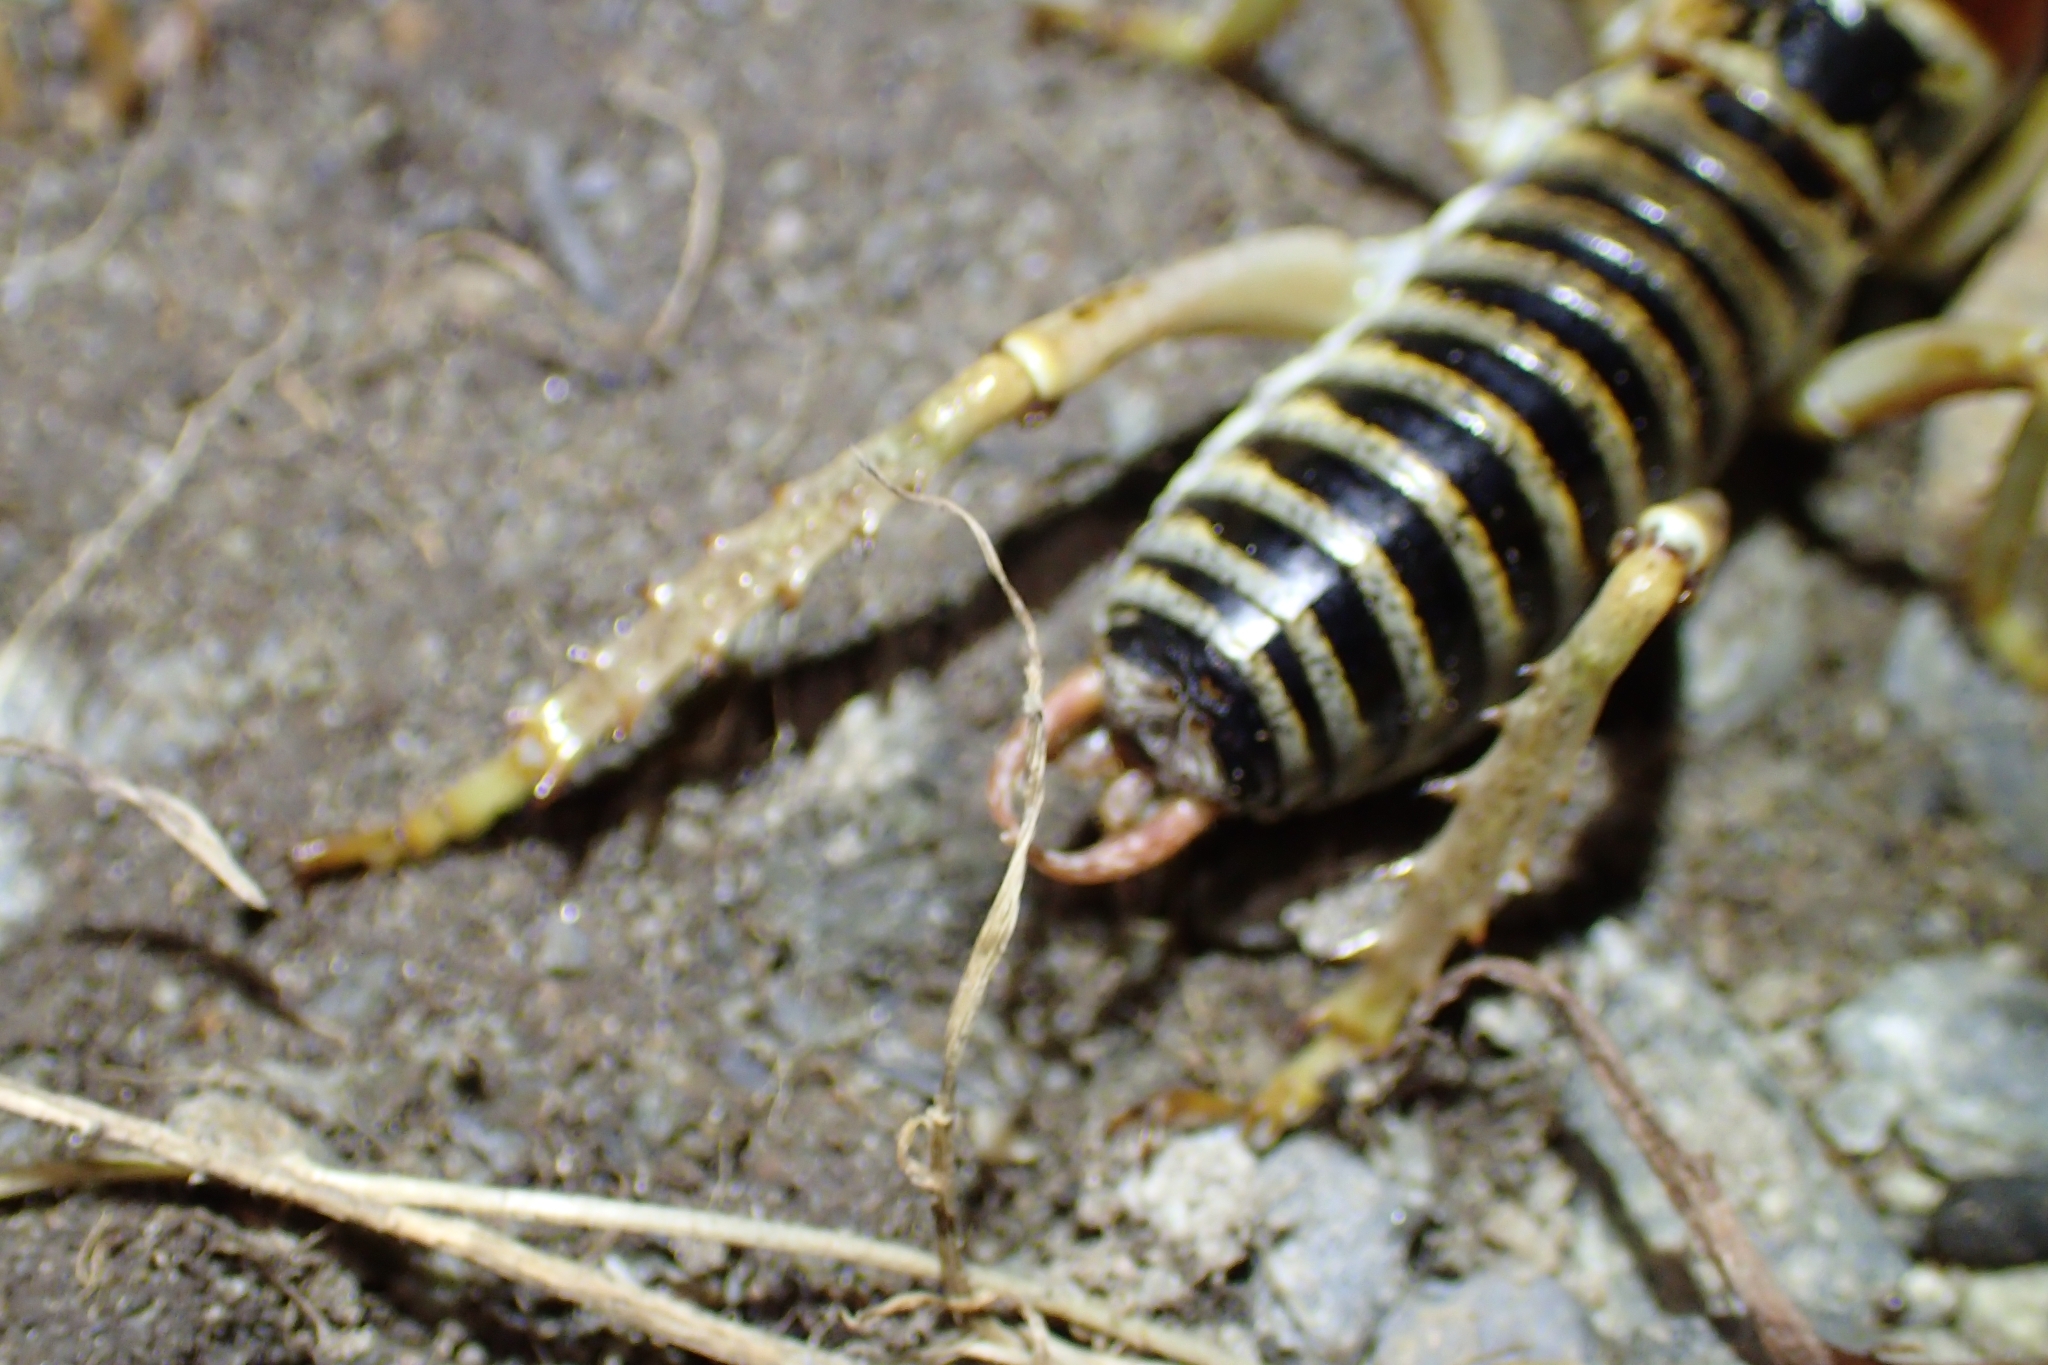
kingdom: Animalia
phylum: Arthropoda
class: Insecta
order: Orthoptera
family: Anostostomatidae
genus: Hemideina
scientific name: Hemideina maori
